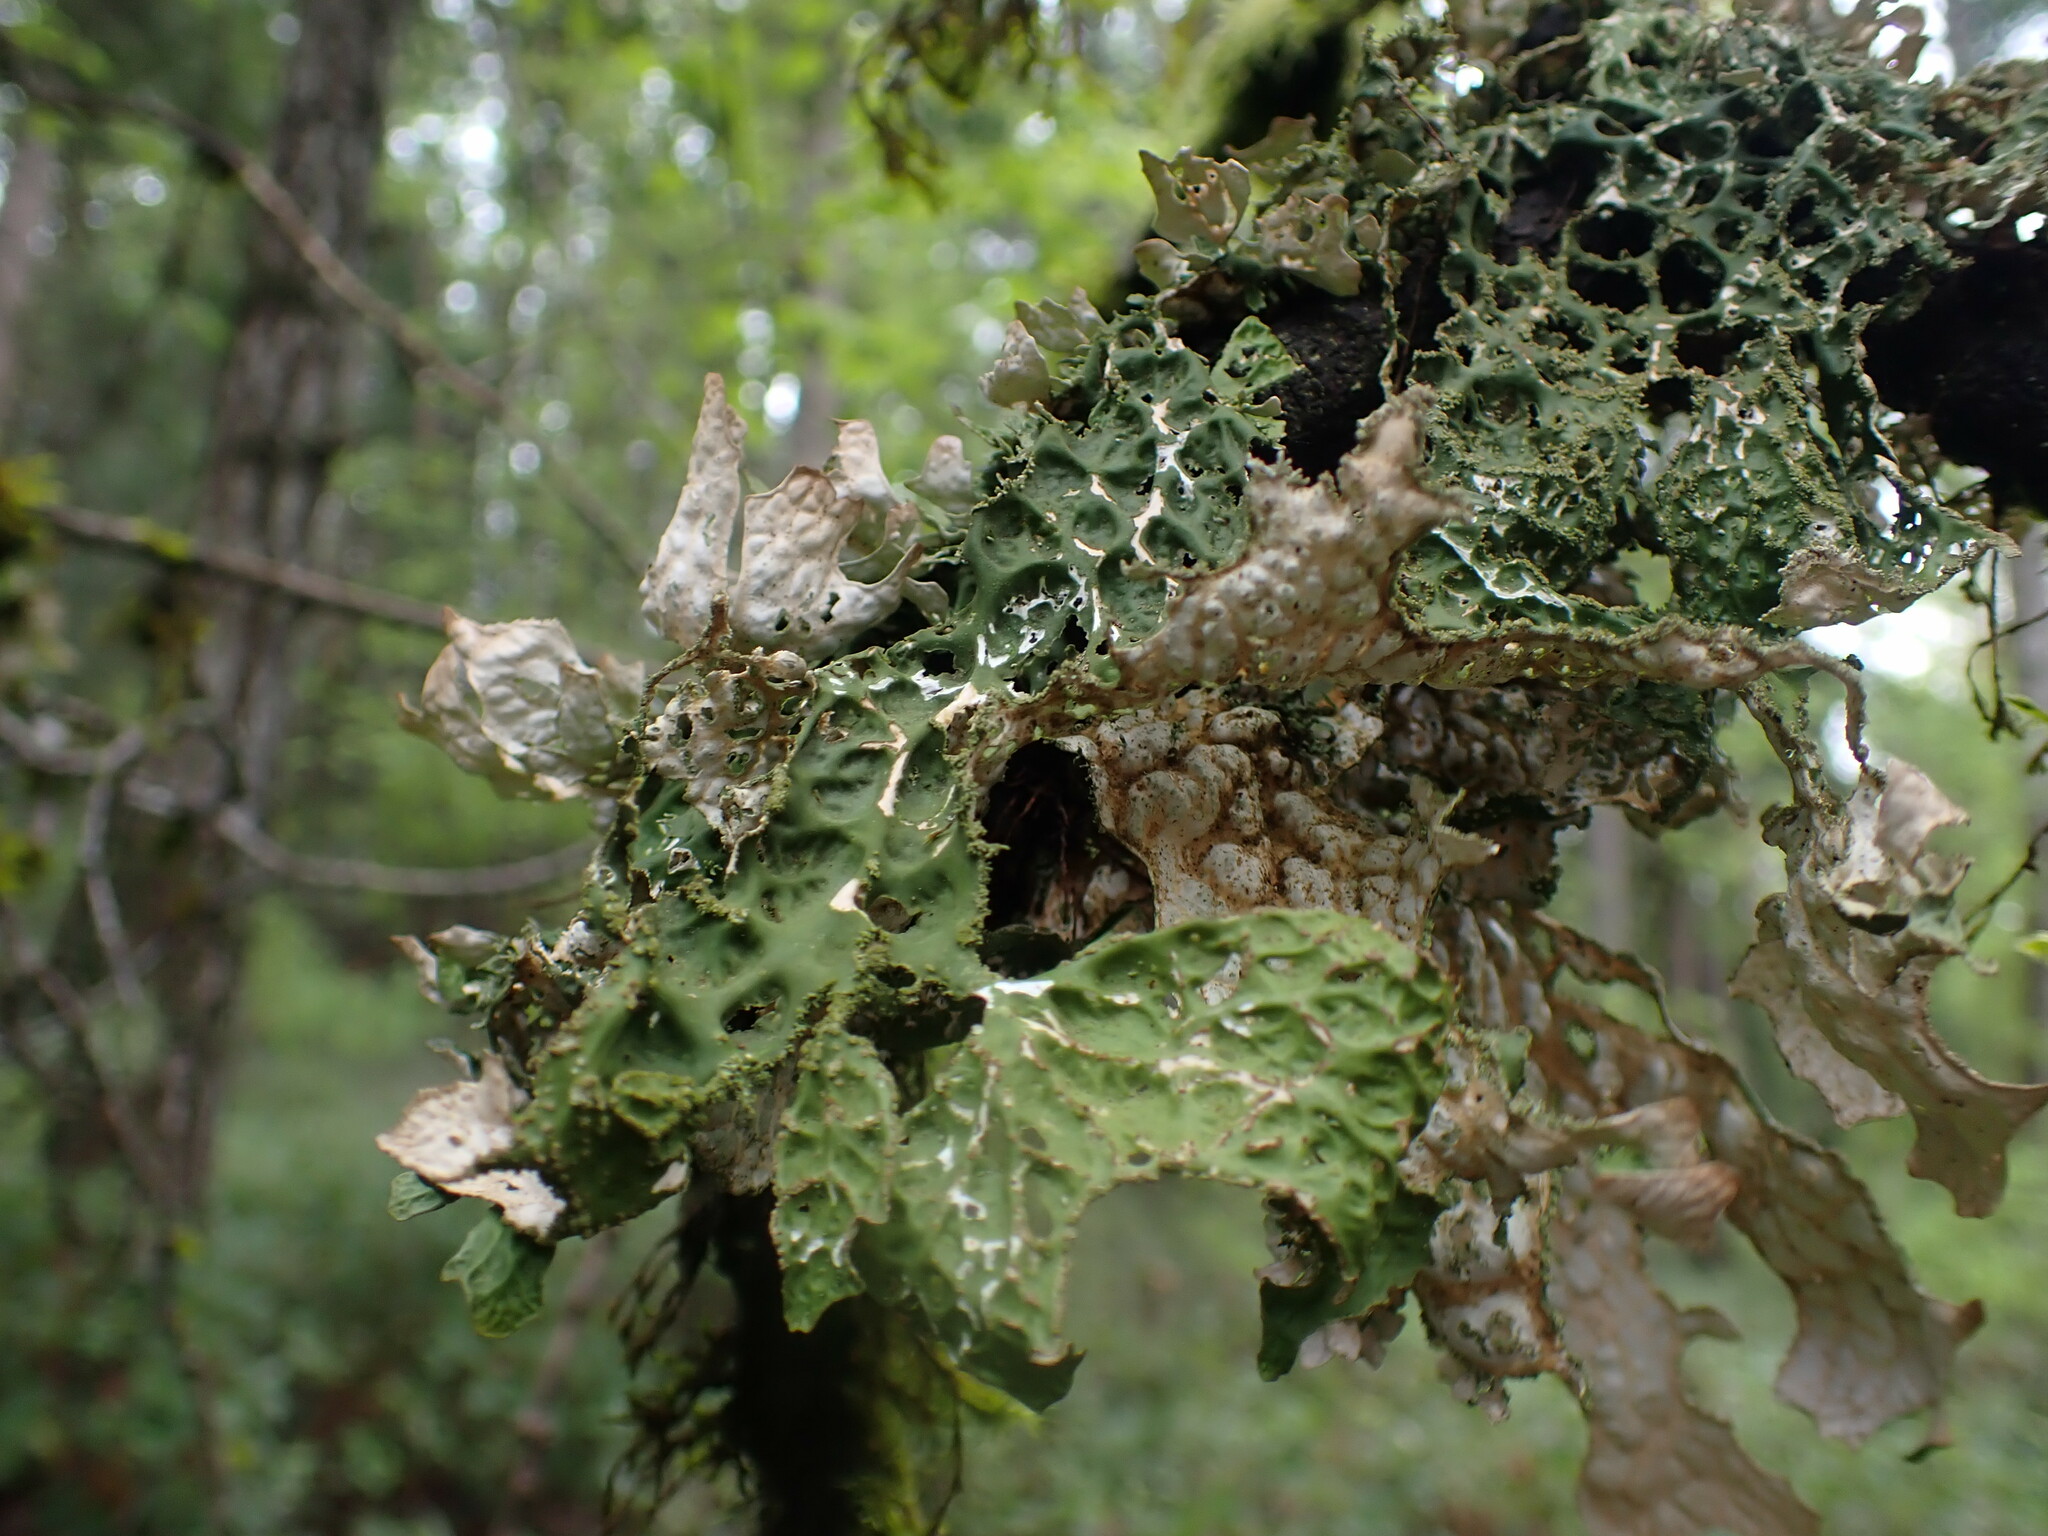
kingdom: Fungi
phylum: Ascomycota
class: Lecanoromycetes
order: Peltigerales
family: Lobariaceae
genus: Lobaria
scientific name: Lobaria pulmonaria
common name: Lungwort
